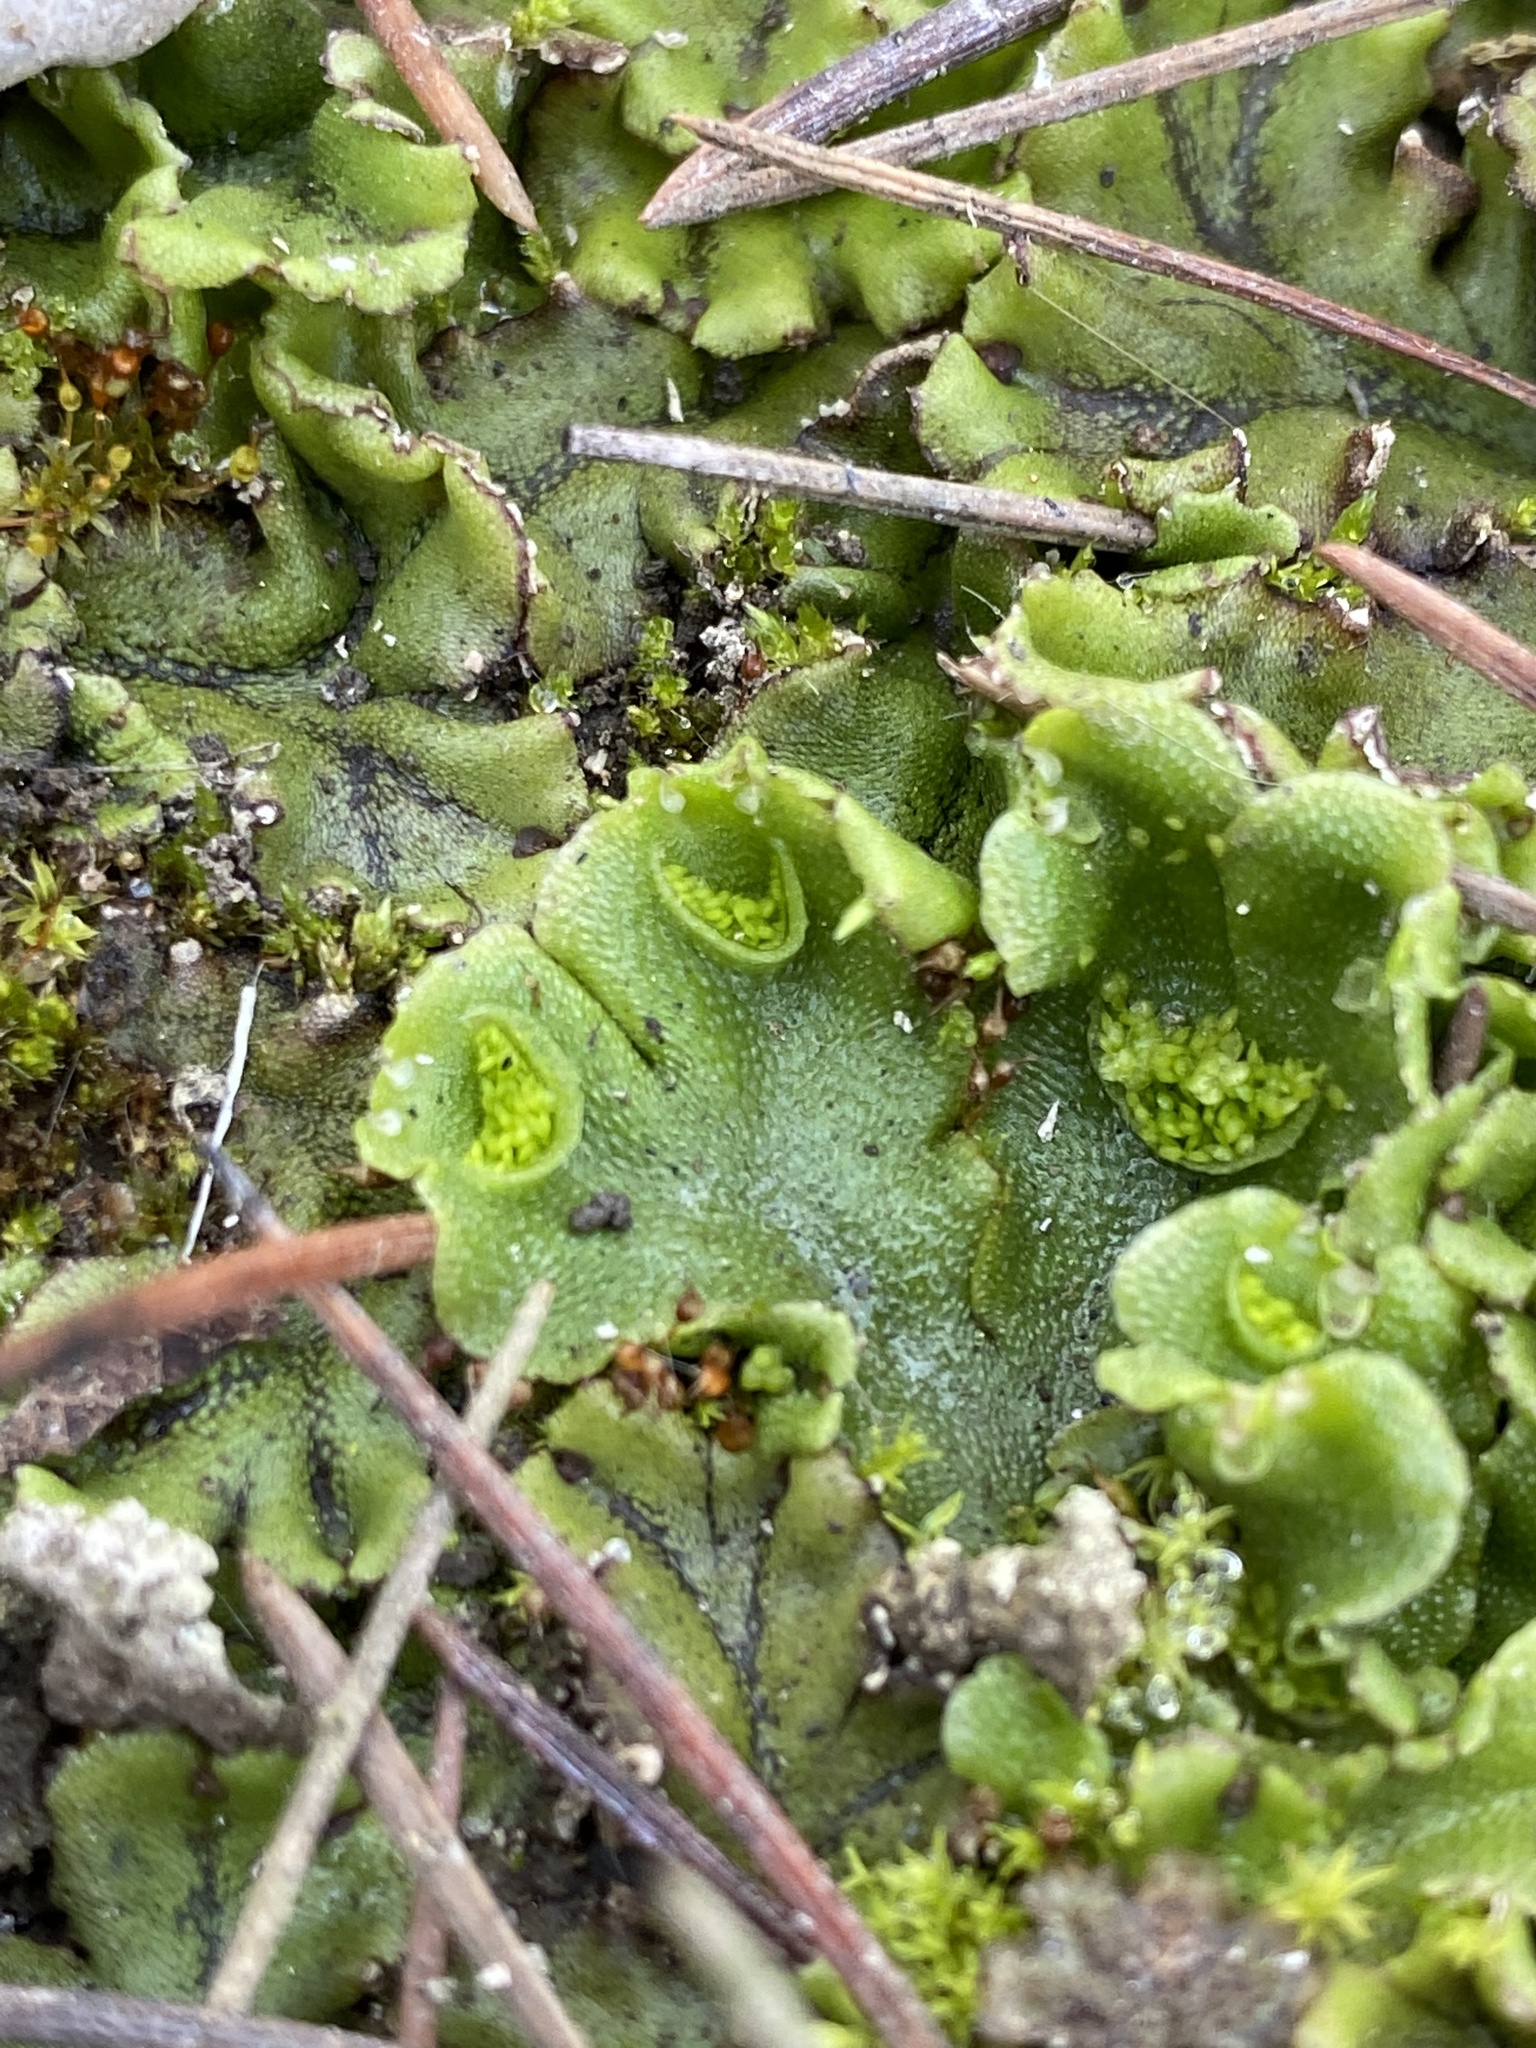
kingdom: Plantae
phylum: Marchantiophyta
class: Marchantiopsida
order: Lunulariales
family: Lunulariaceae
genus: Lunularia
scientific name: Lunularia cruciata
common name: Crescent-cup liverwort
